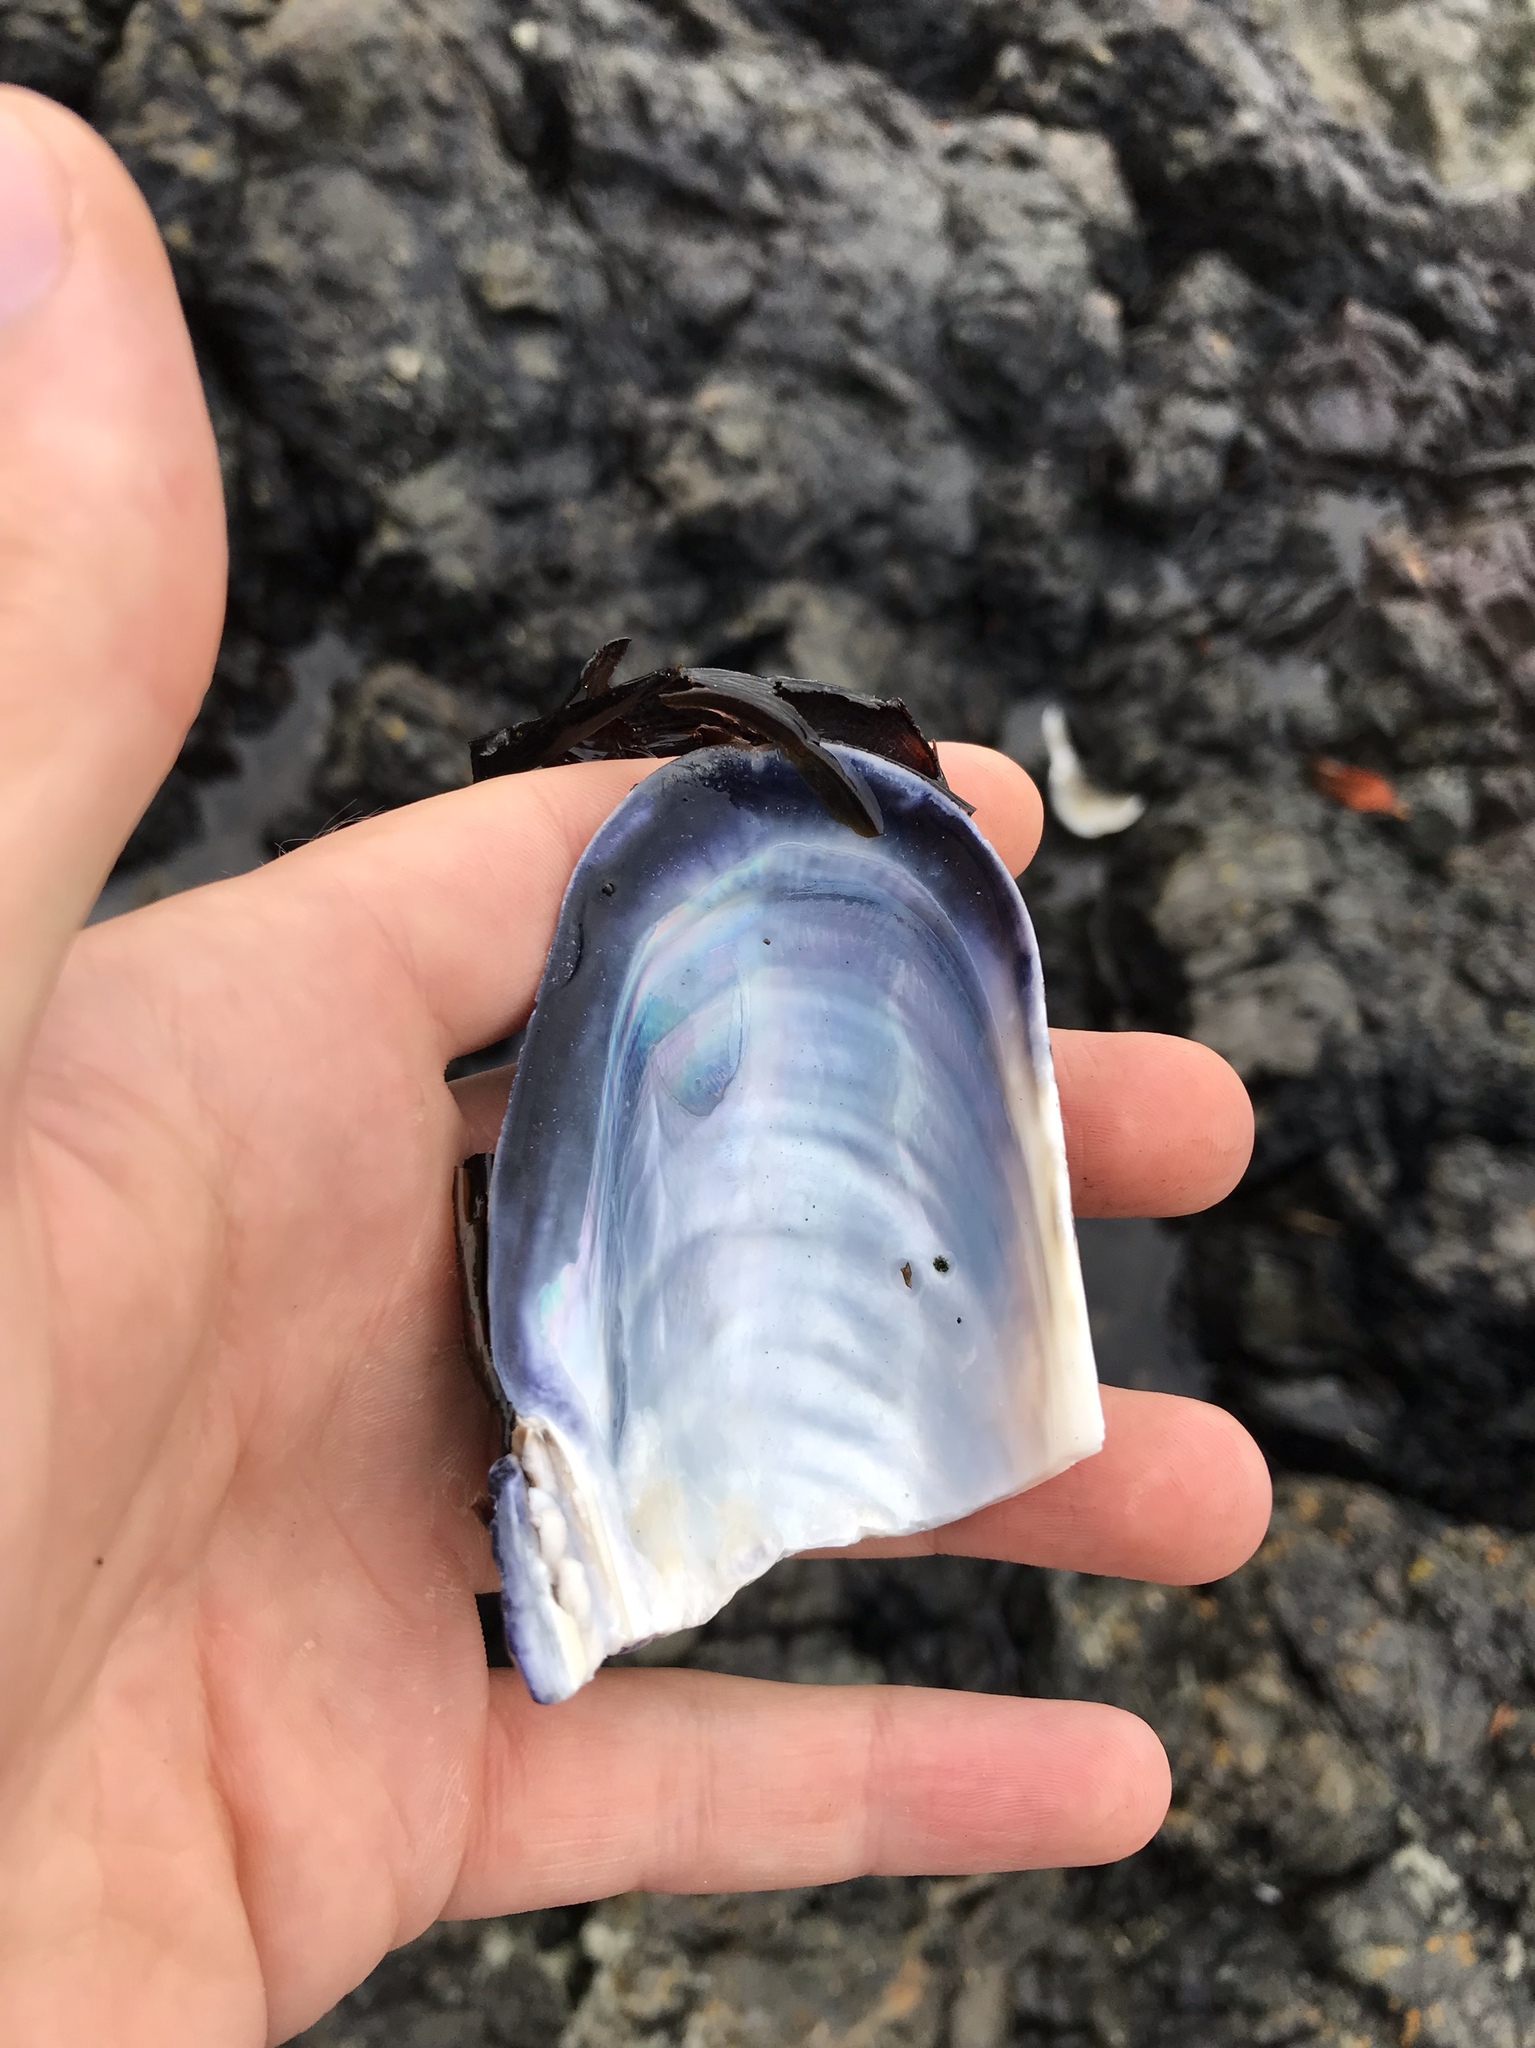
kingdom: Animalia
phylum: Mollusca
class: Bivalvia
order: Mytilida
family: Mytilidae
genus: Mytilus
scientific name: Mytilus californianus
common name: California mussel
